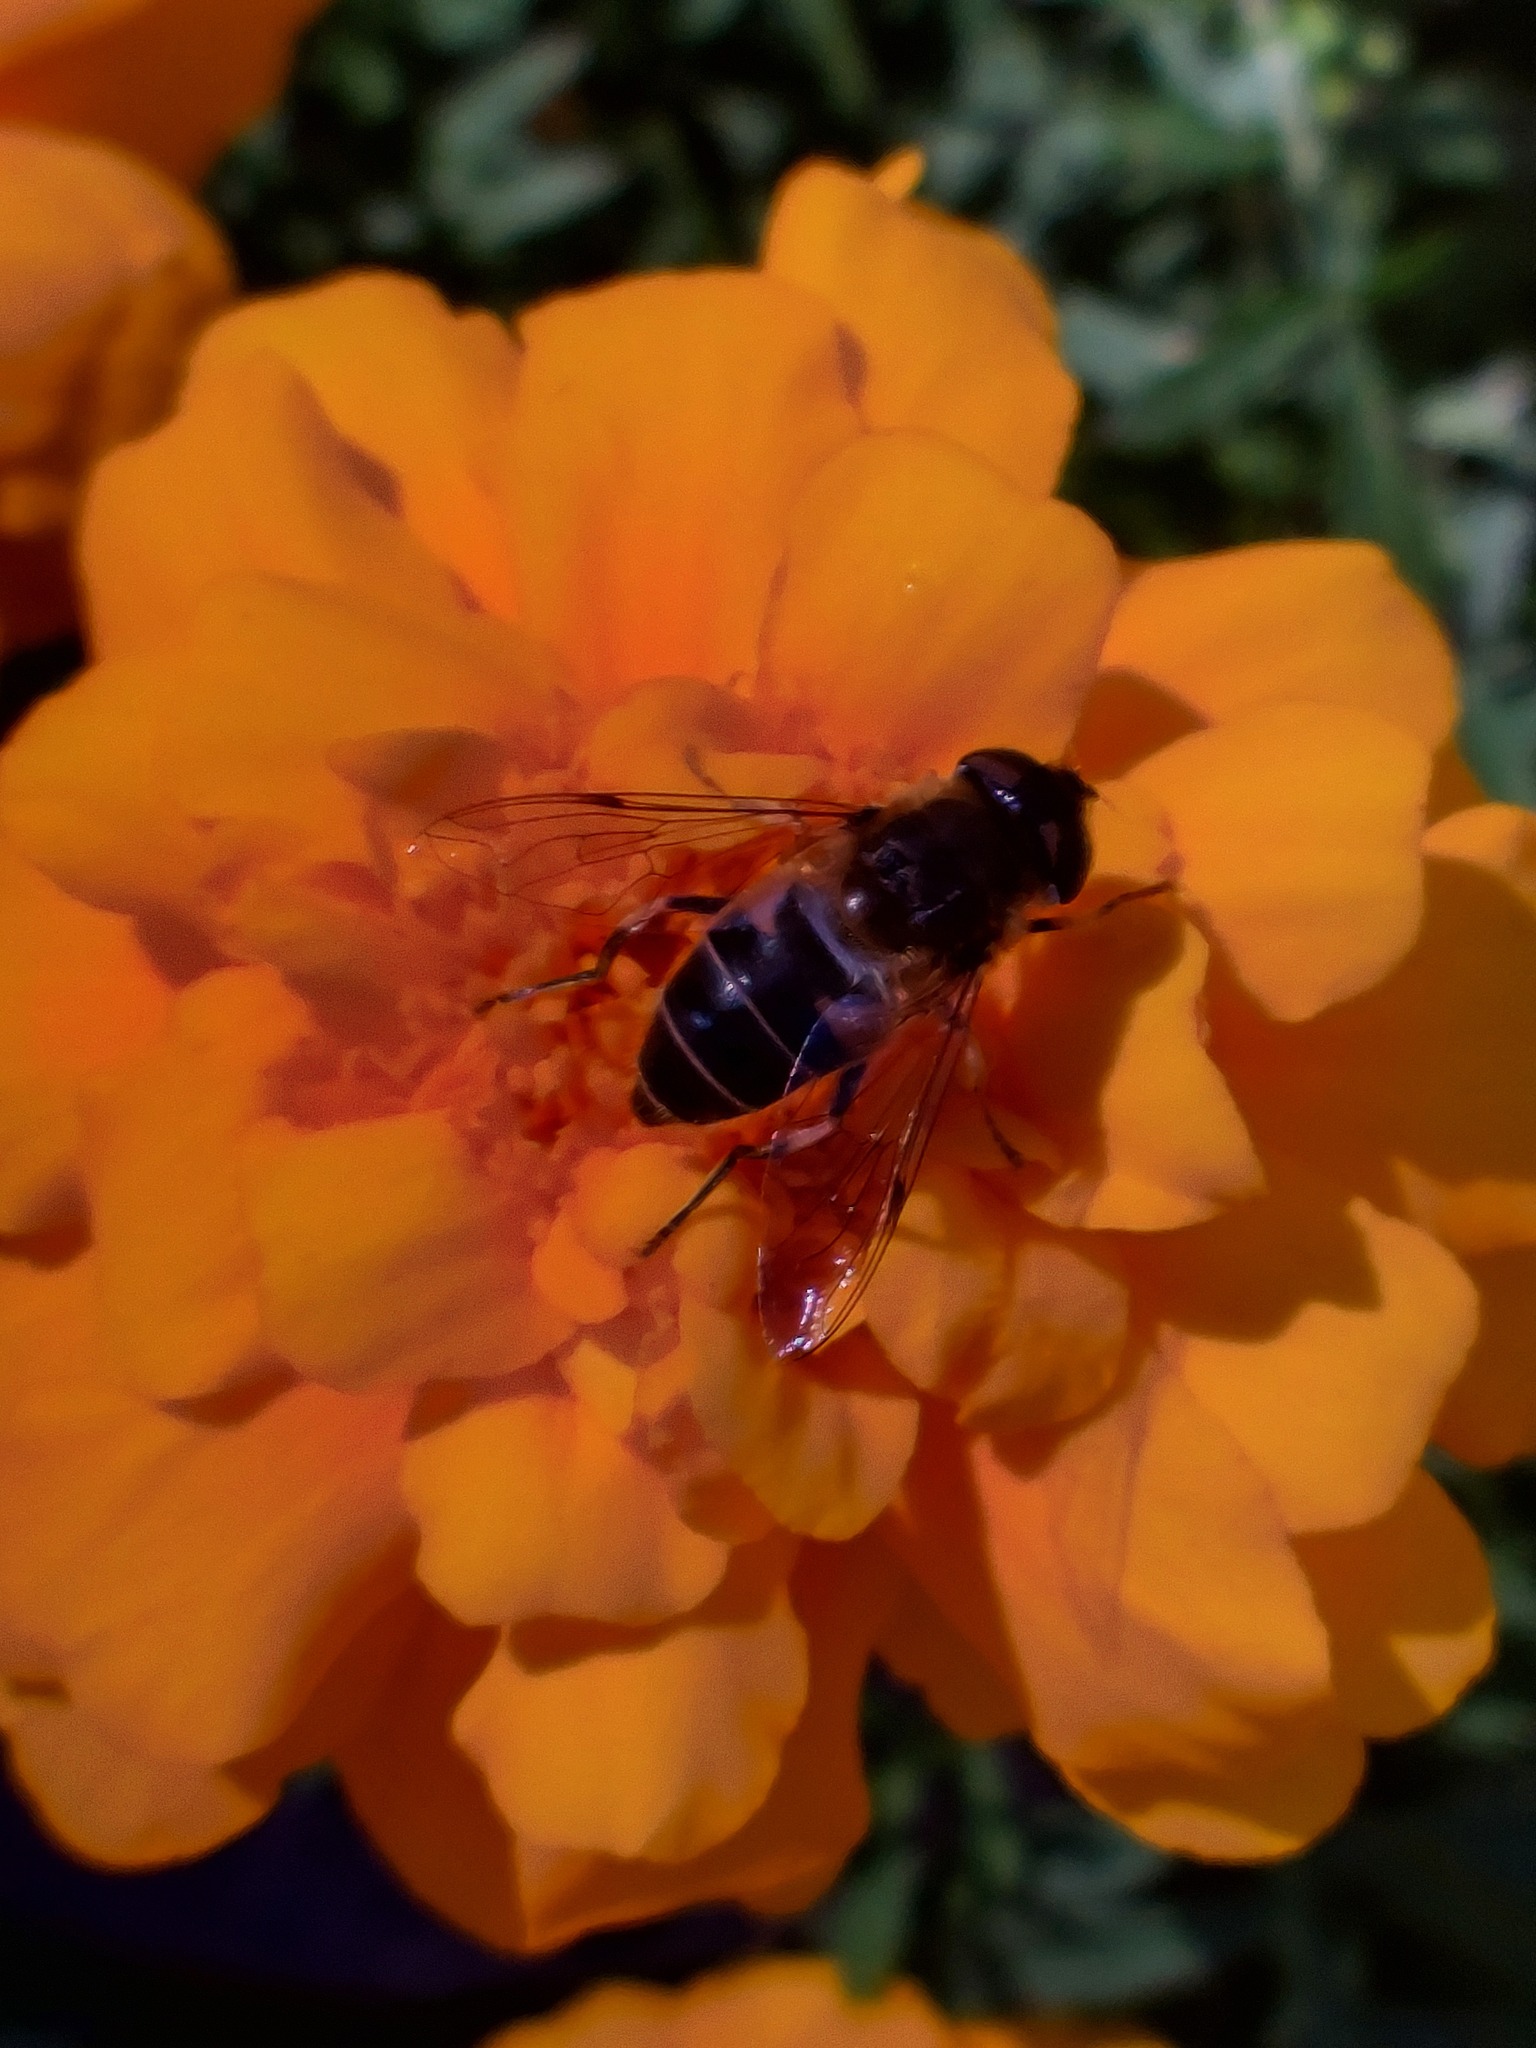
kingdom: Animalia
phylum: Arthropoda
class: Insecta
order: Diptera
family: Syrphidae
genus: Eristalis
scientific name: Eristalis pertinax
